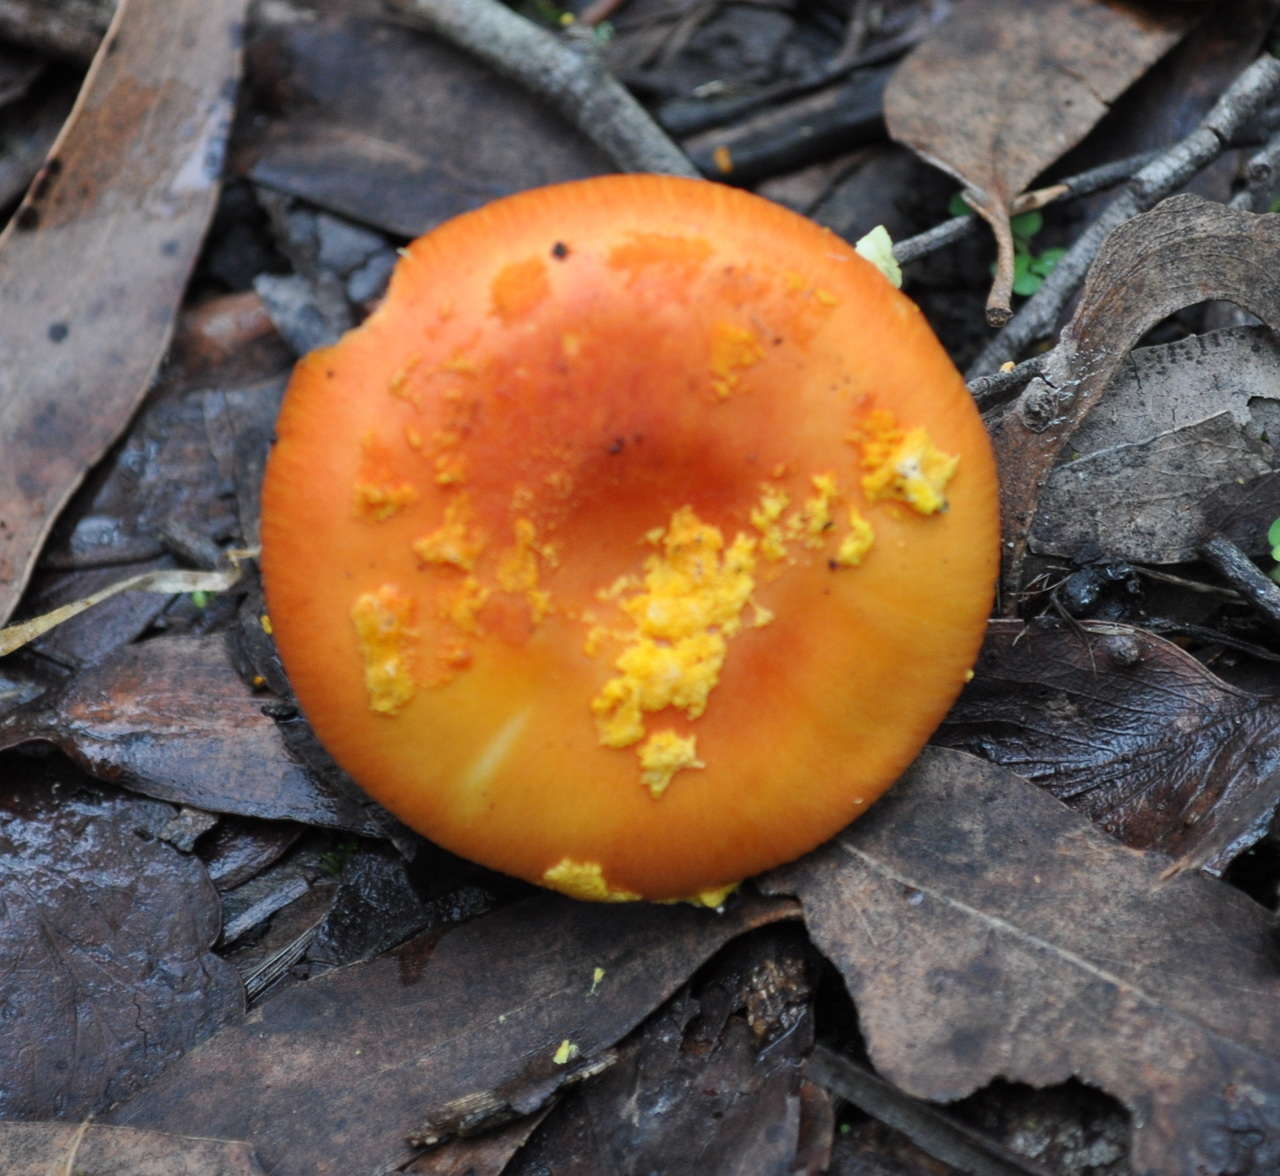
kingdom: Fungi
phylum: Basidiomycota
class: Agaricomycetes
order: Agaricales
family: Amanitaceae
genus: Amanita
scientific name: Amanita xanthocephala
